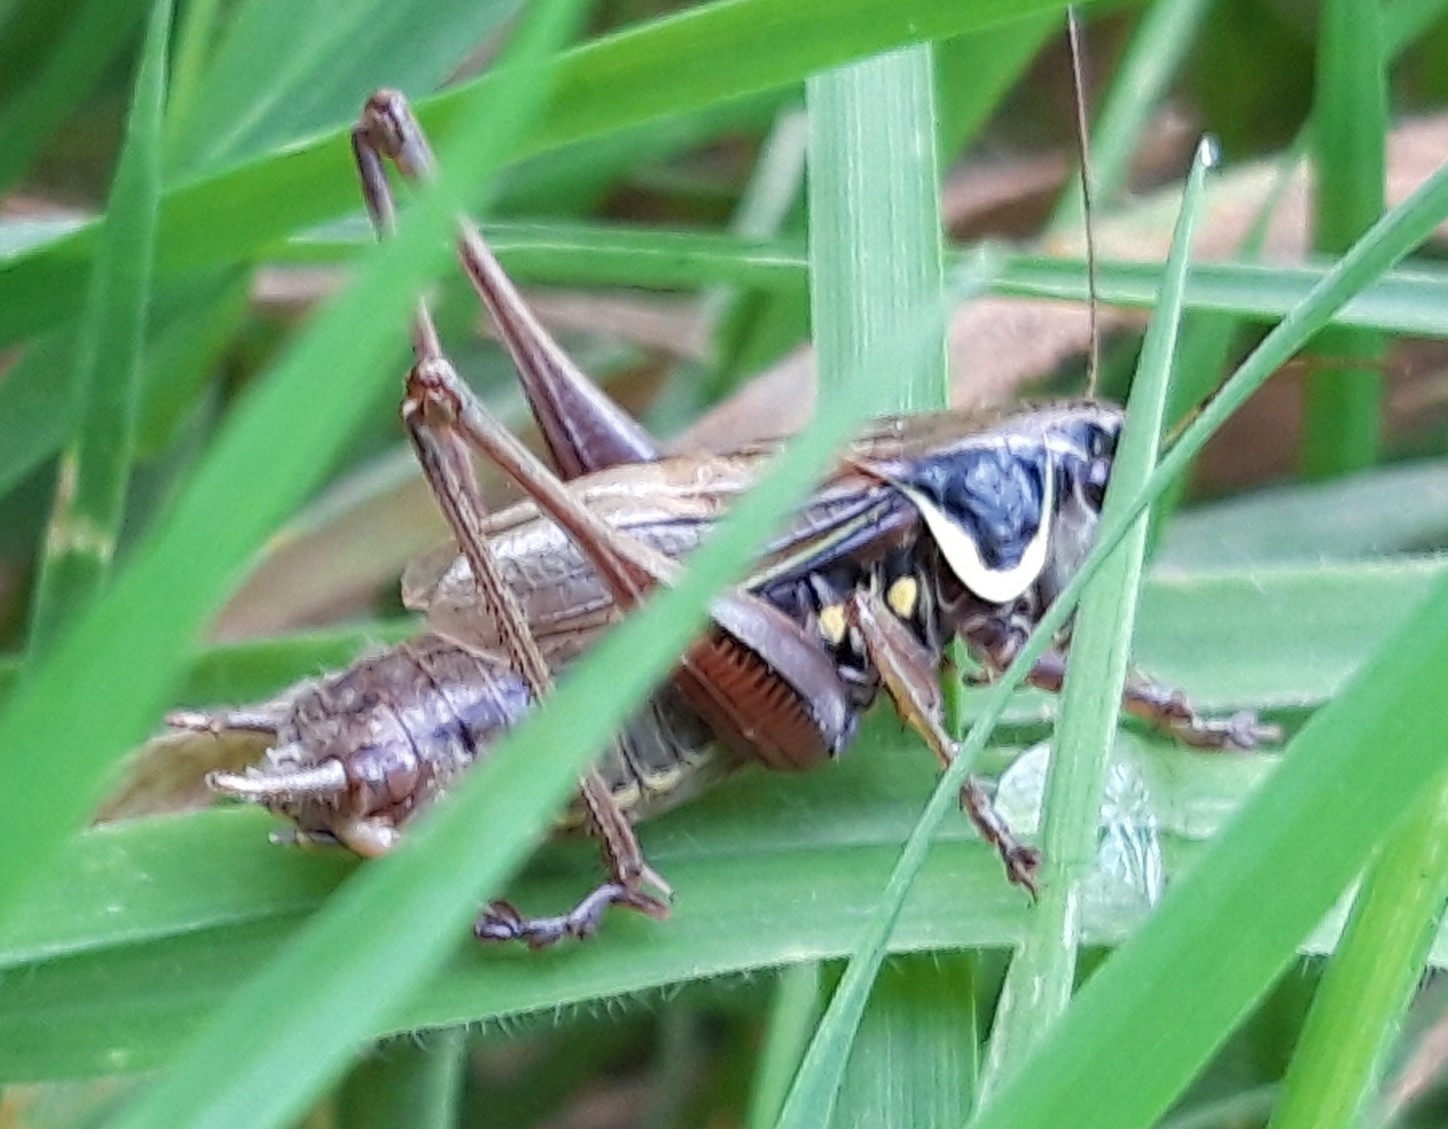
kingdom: Animalia
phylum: Arthropoda
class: Insecta
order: Orthoptera
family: Tettigoniidae
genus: Roeseliana
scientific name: Roeseliana roeselii
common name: Roesel's bush cricket
